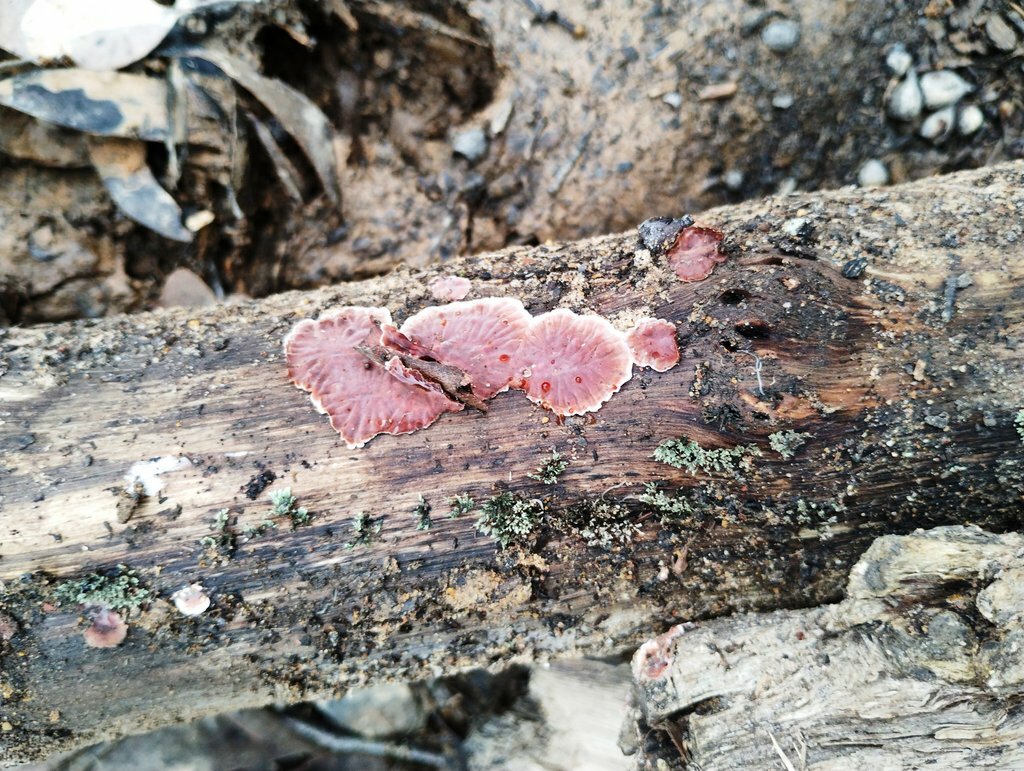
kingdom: Fungi
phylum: Basidiomycota
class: Agaricomycetes
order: Russulales
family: Stereaceae
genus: Xylobolus
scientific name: Xylobolus illudens
